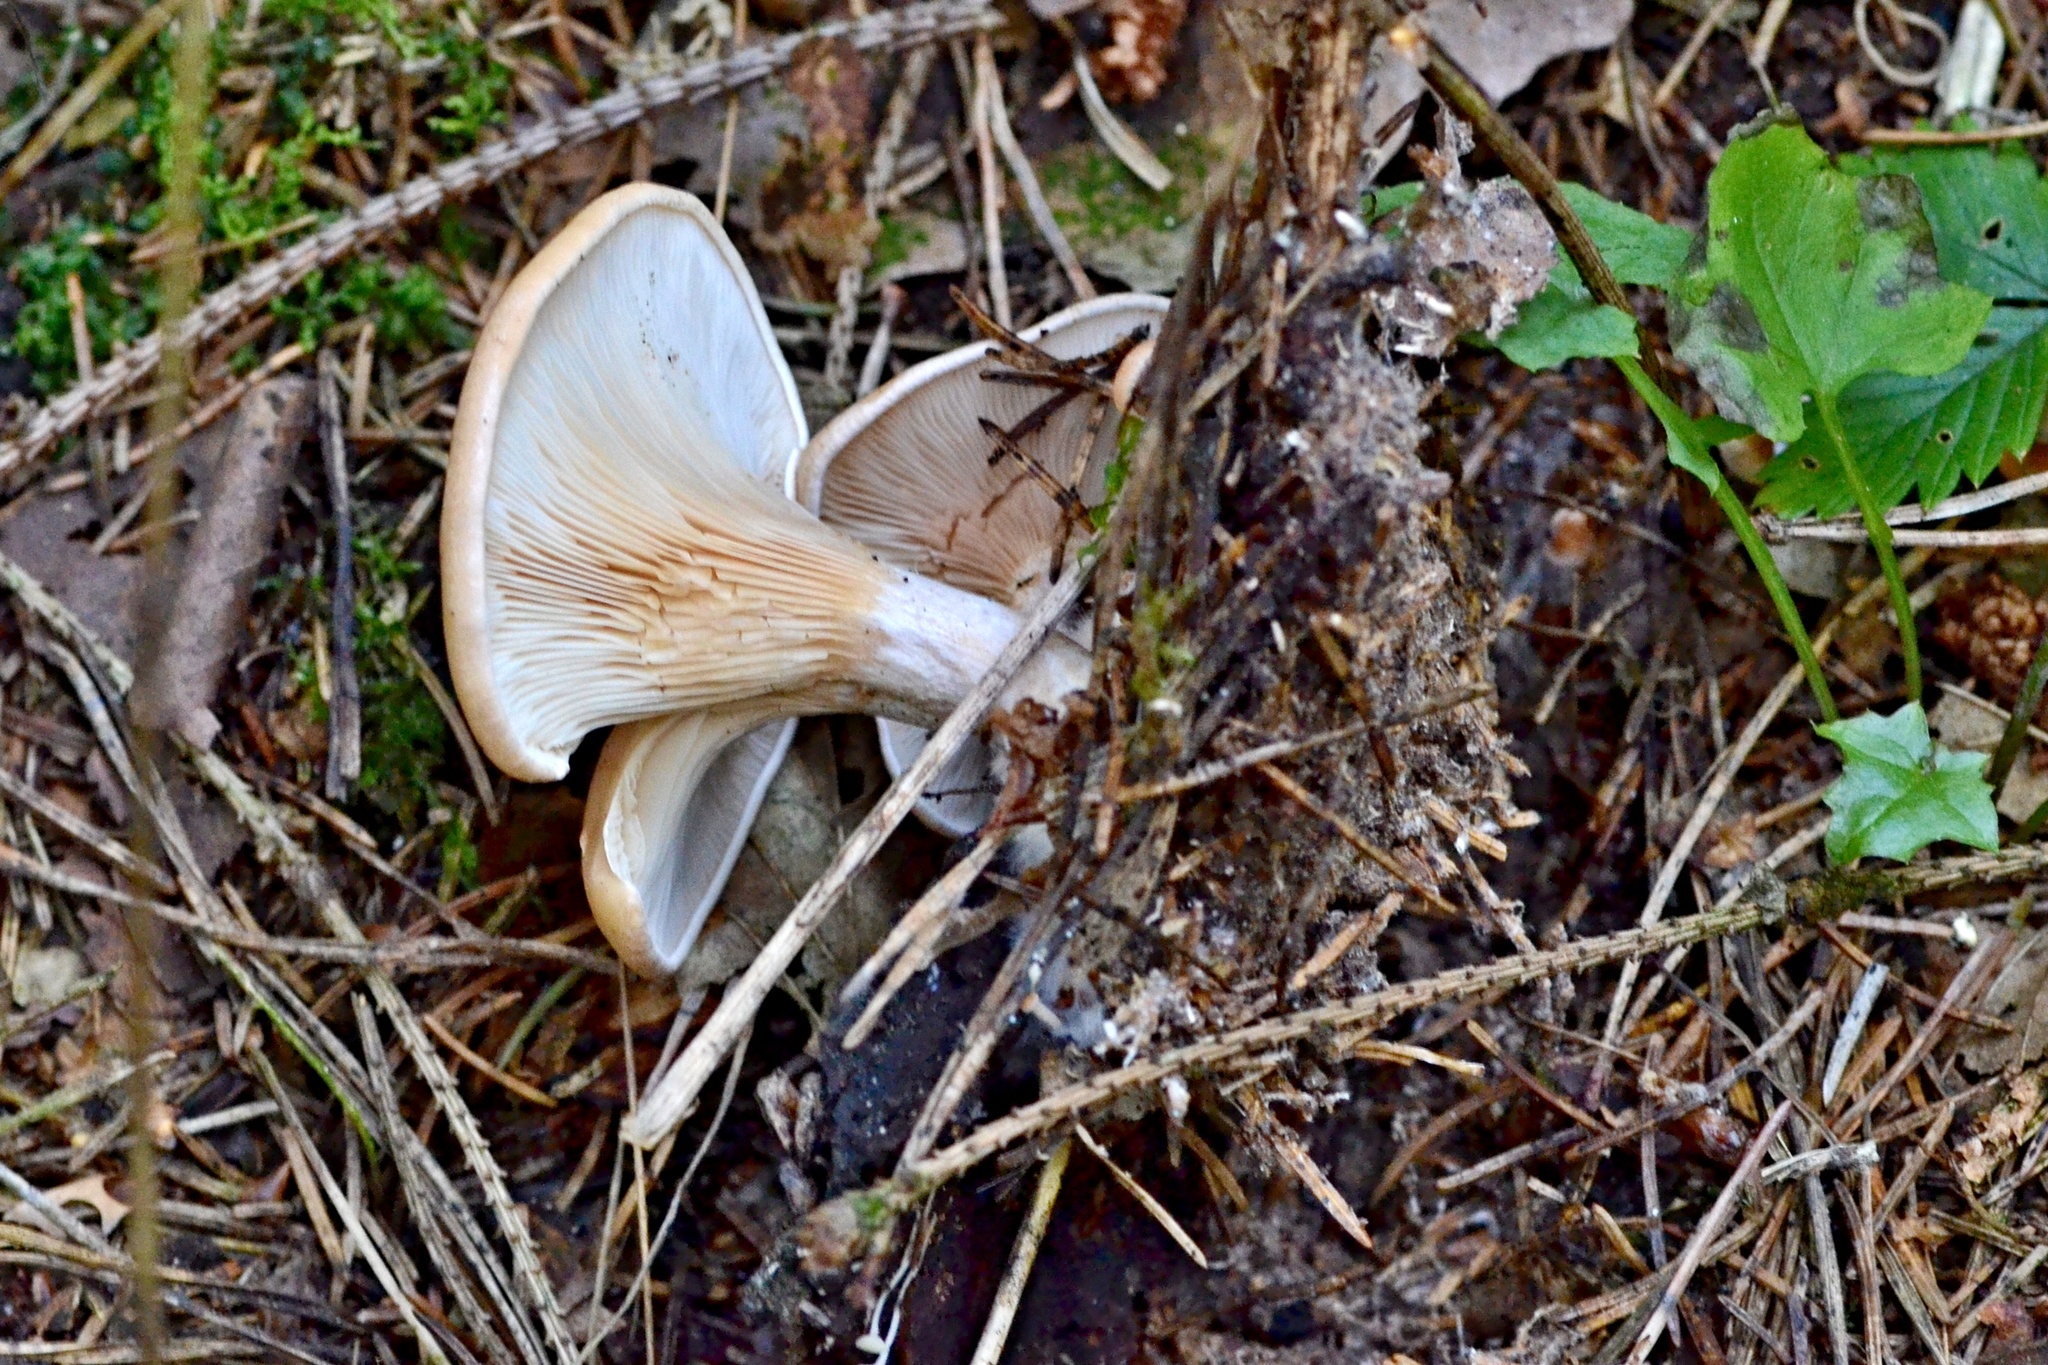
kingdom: Fungi
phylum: Basidiomycota
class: Agaricomycetes
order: Agaricales
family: Tricholomataceae
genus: Paralepista
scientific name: Paralepista flaccida
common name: Tawny funnel cap
